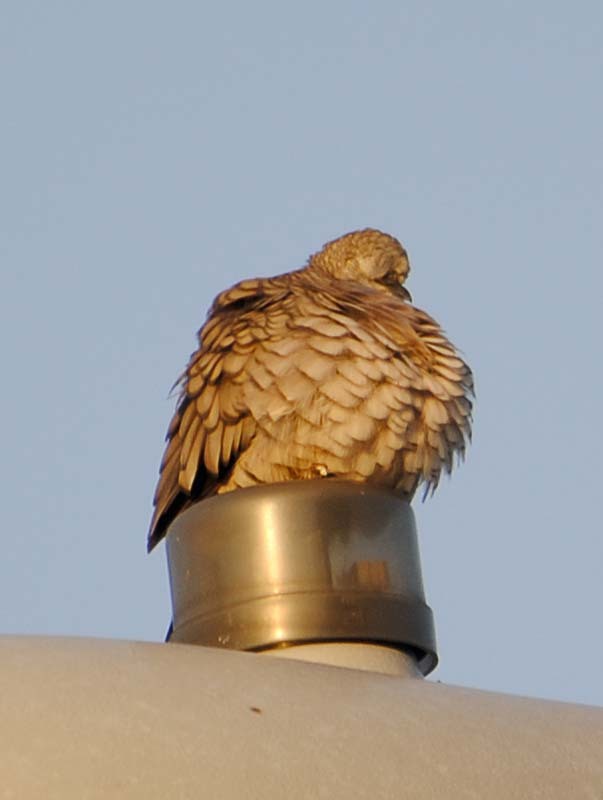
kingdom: Animalia
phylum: Chordata
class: Aves
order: Columbiformes
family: Columbidae
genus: Columbina
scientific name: Columbina inca
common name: Inca dove
